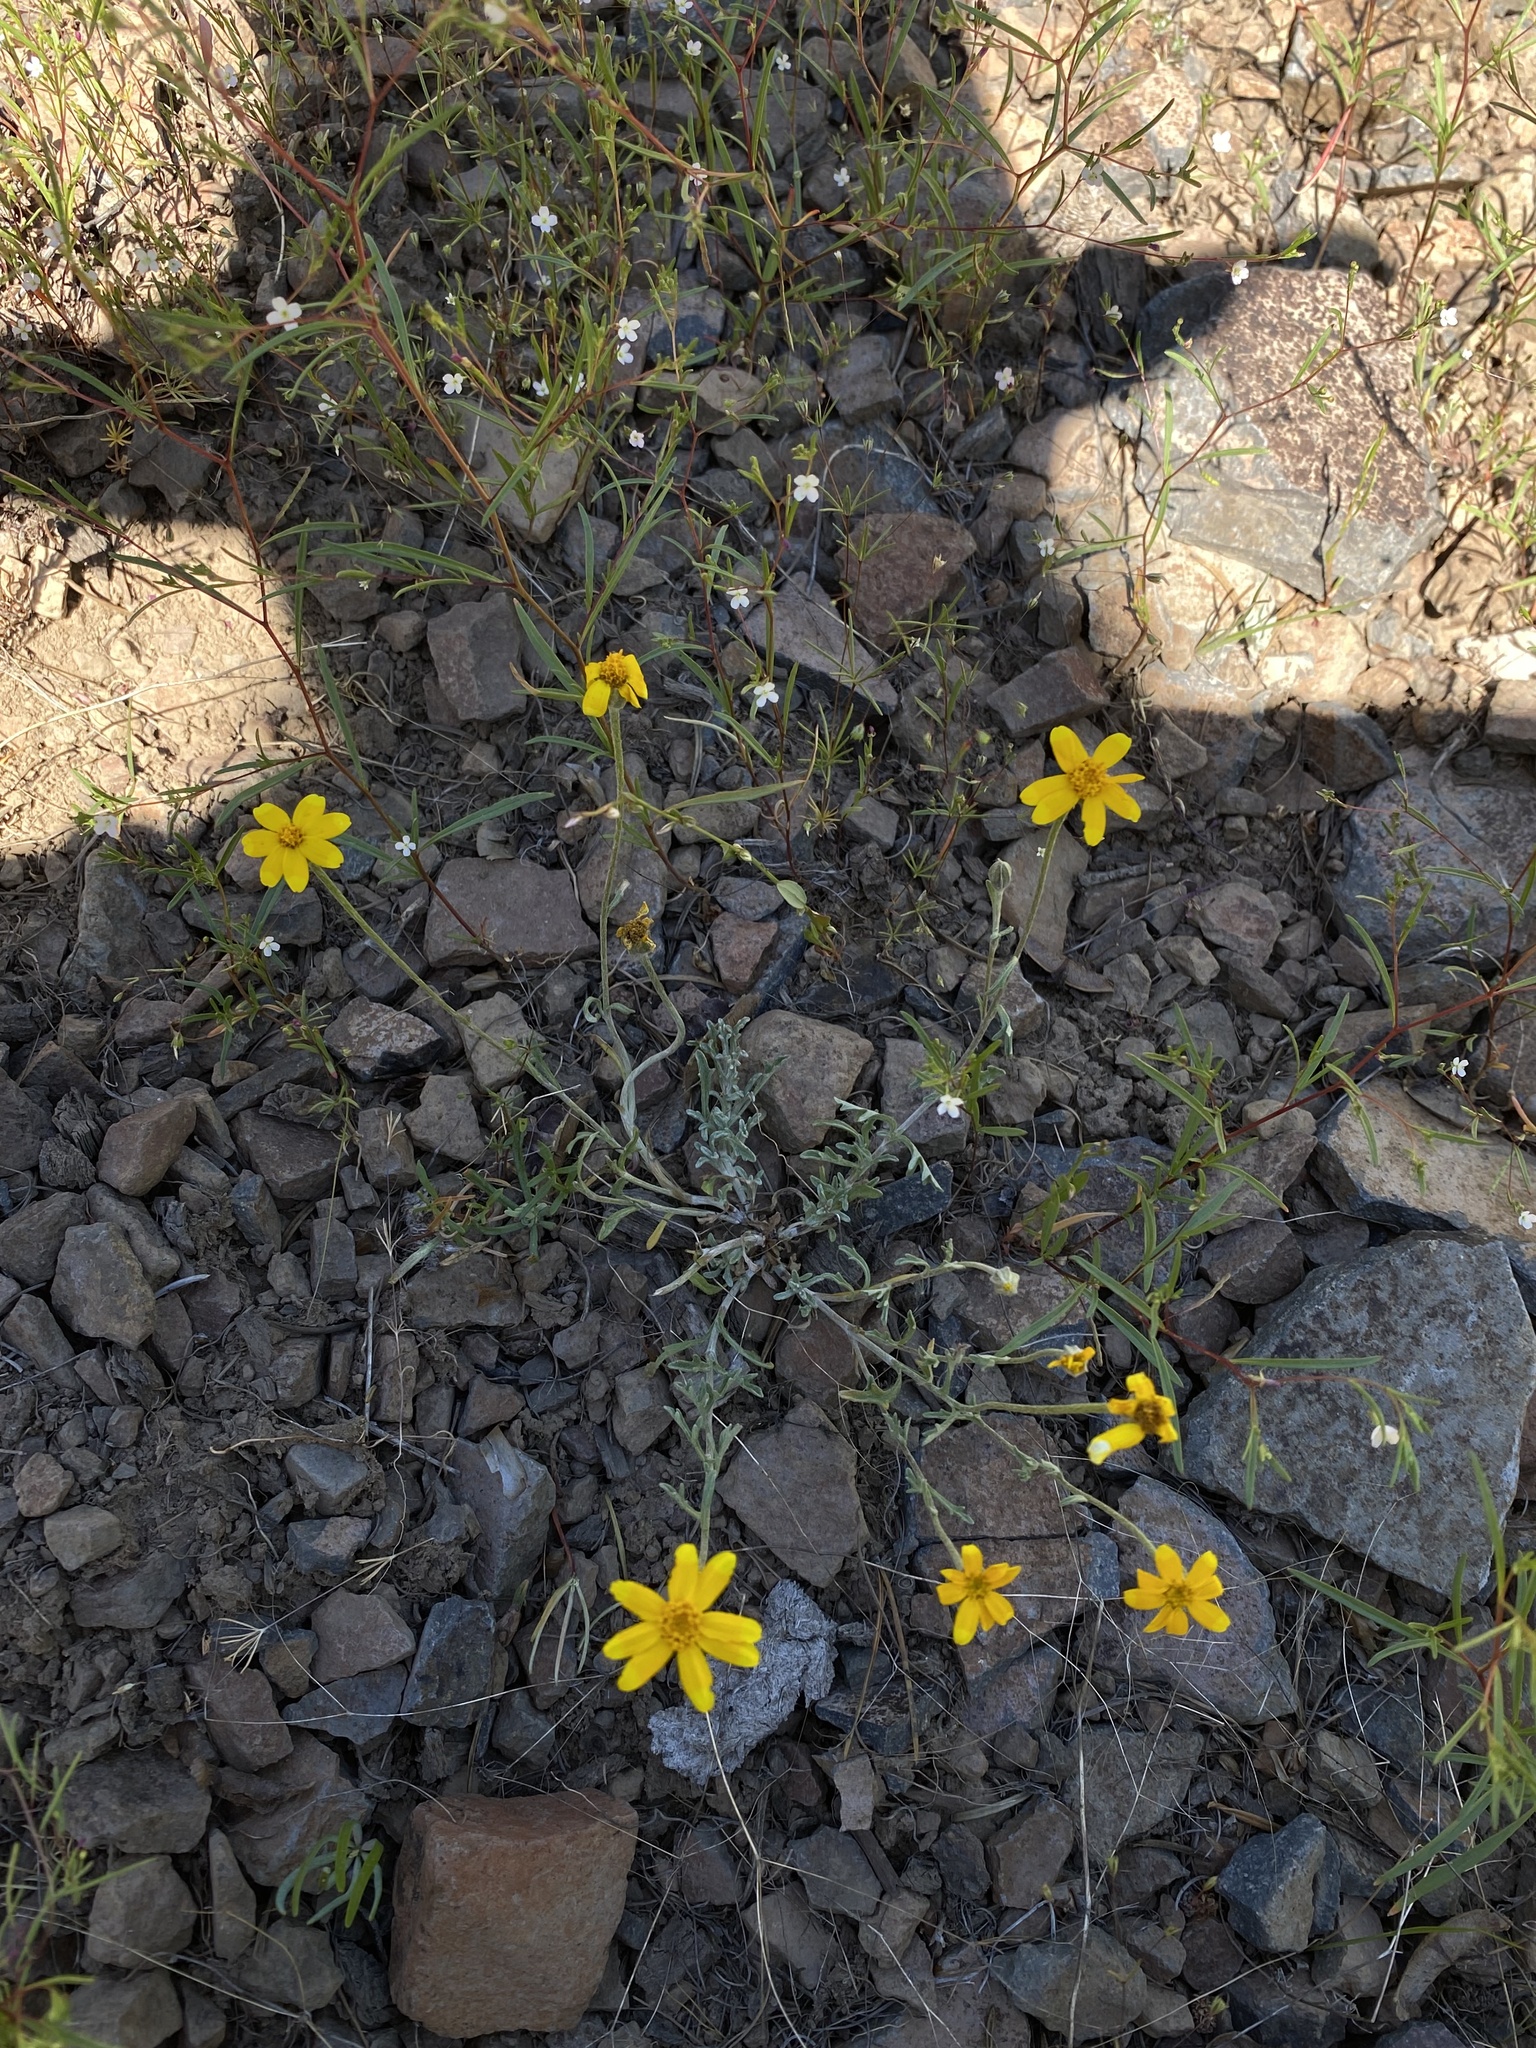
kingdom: Plantae
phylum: Tracheophyta
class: Magnoliopsida
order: Asterales
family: Asteraceae
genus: Eriophyllum
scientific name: Eriophyllum lanatum
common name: Common woolly-sunflower
